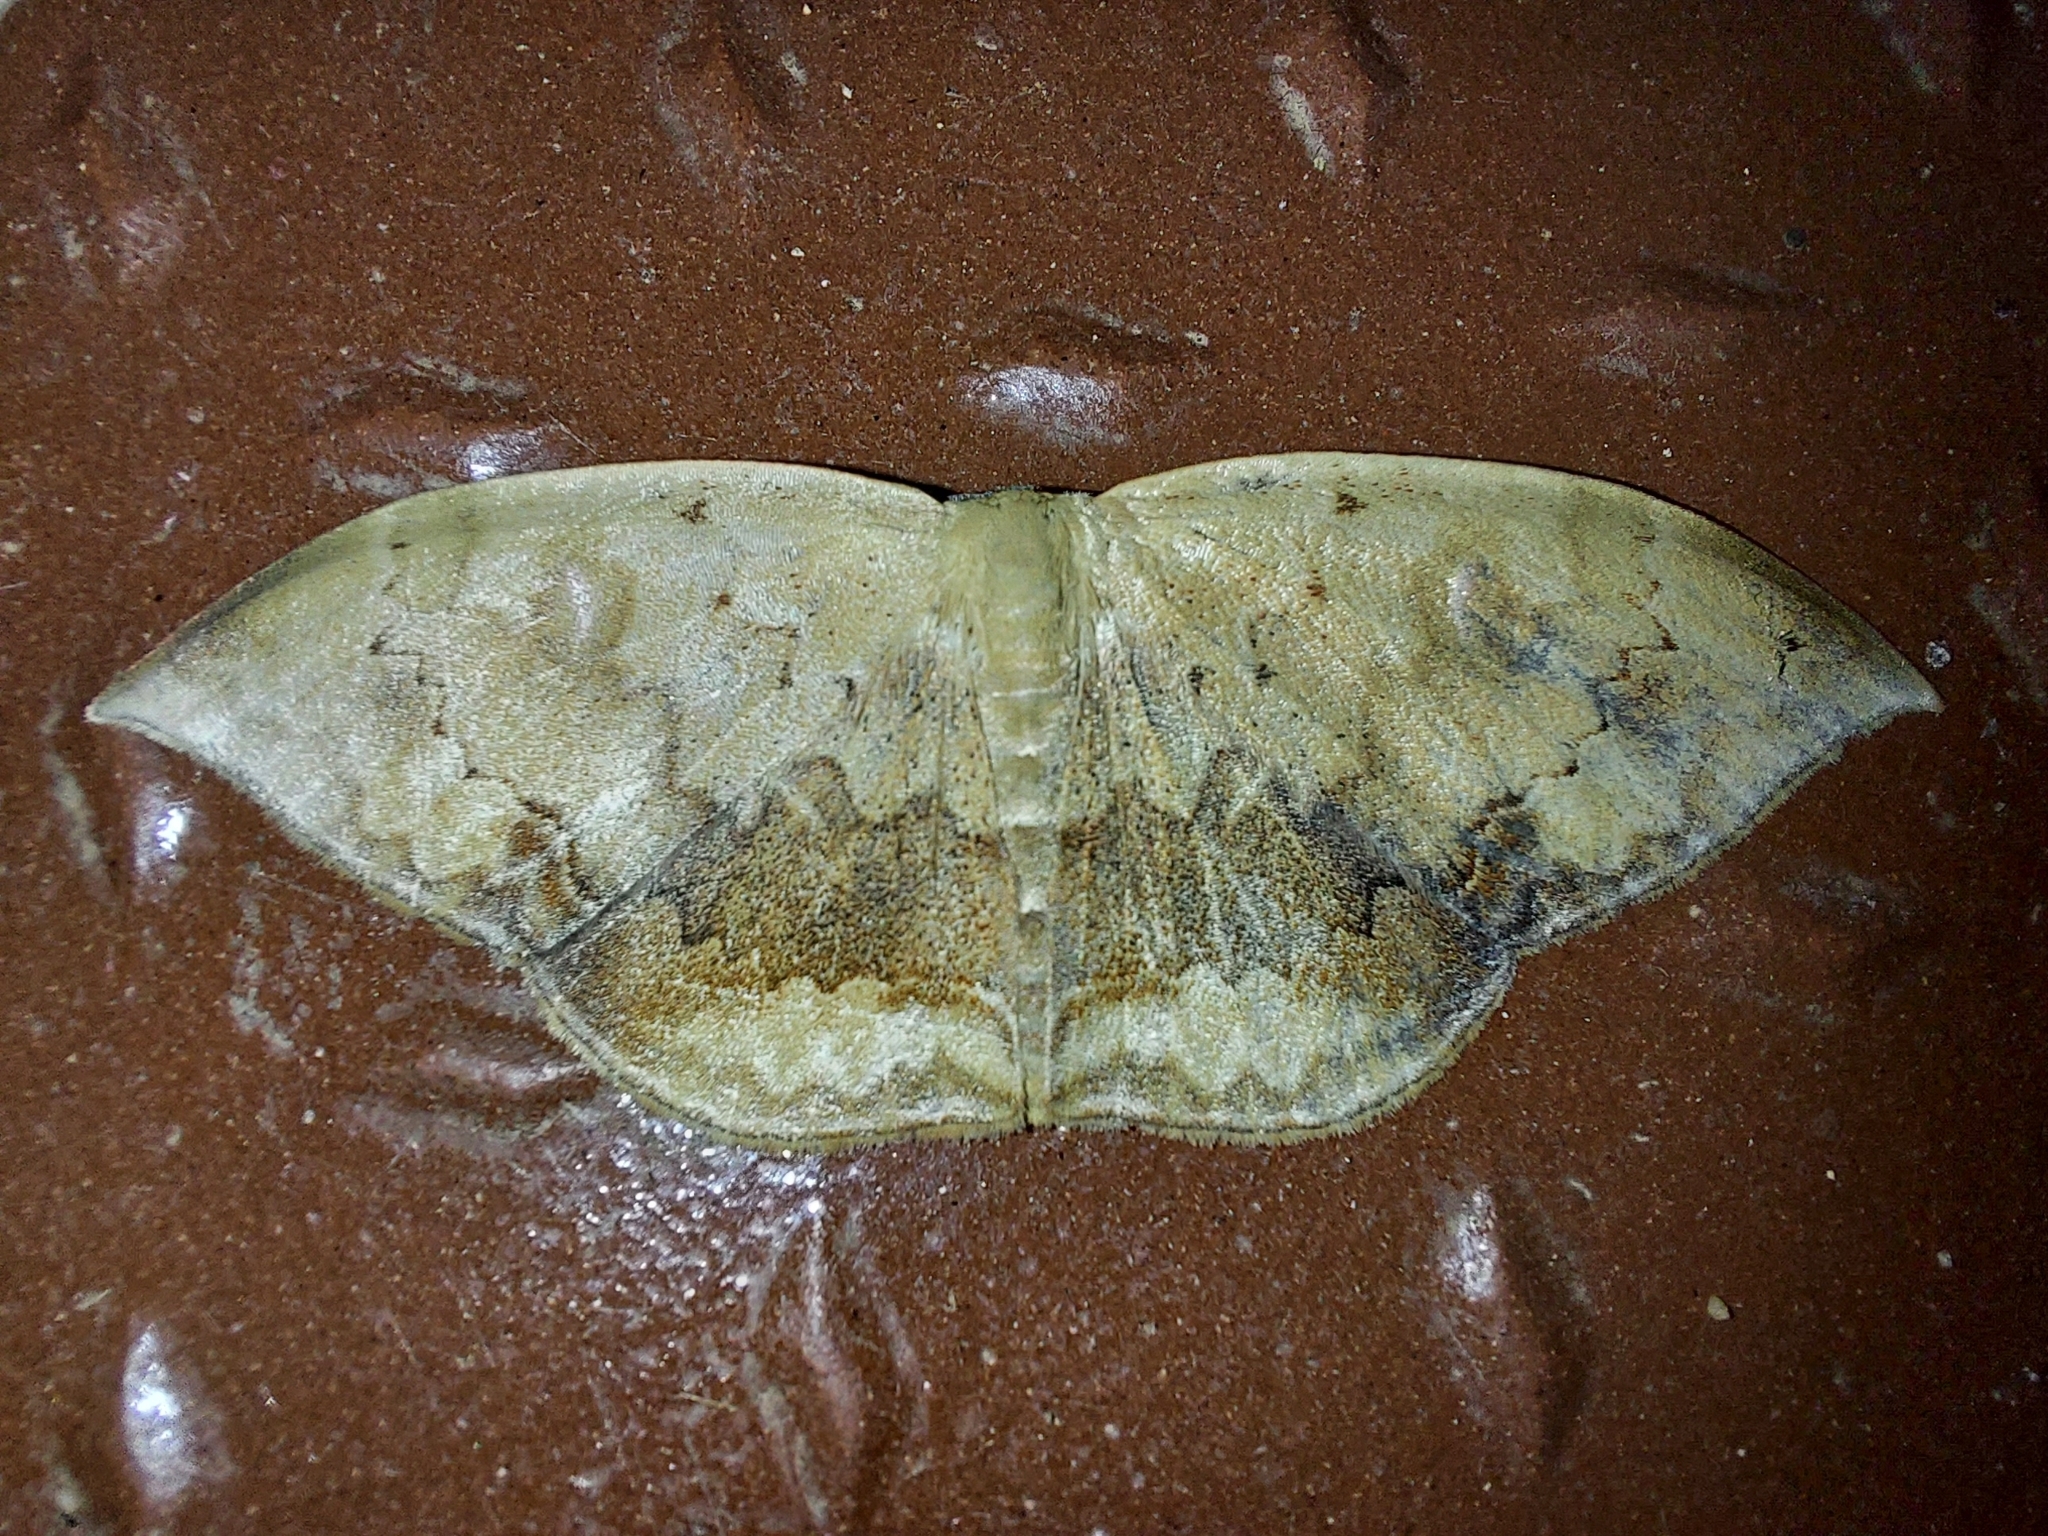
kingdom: Animalia
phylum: Arthropoda
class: Insecta
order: Lepidoptera
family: Geometridae
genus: Lissoblemma
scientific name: Lissoblemma lunuliferata
